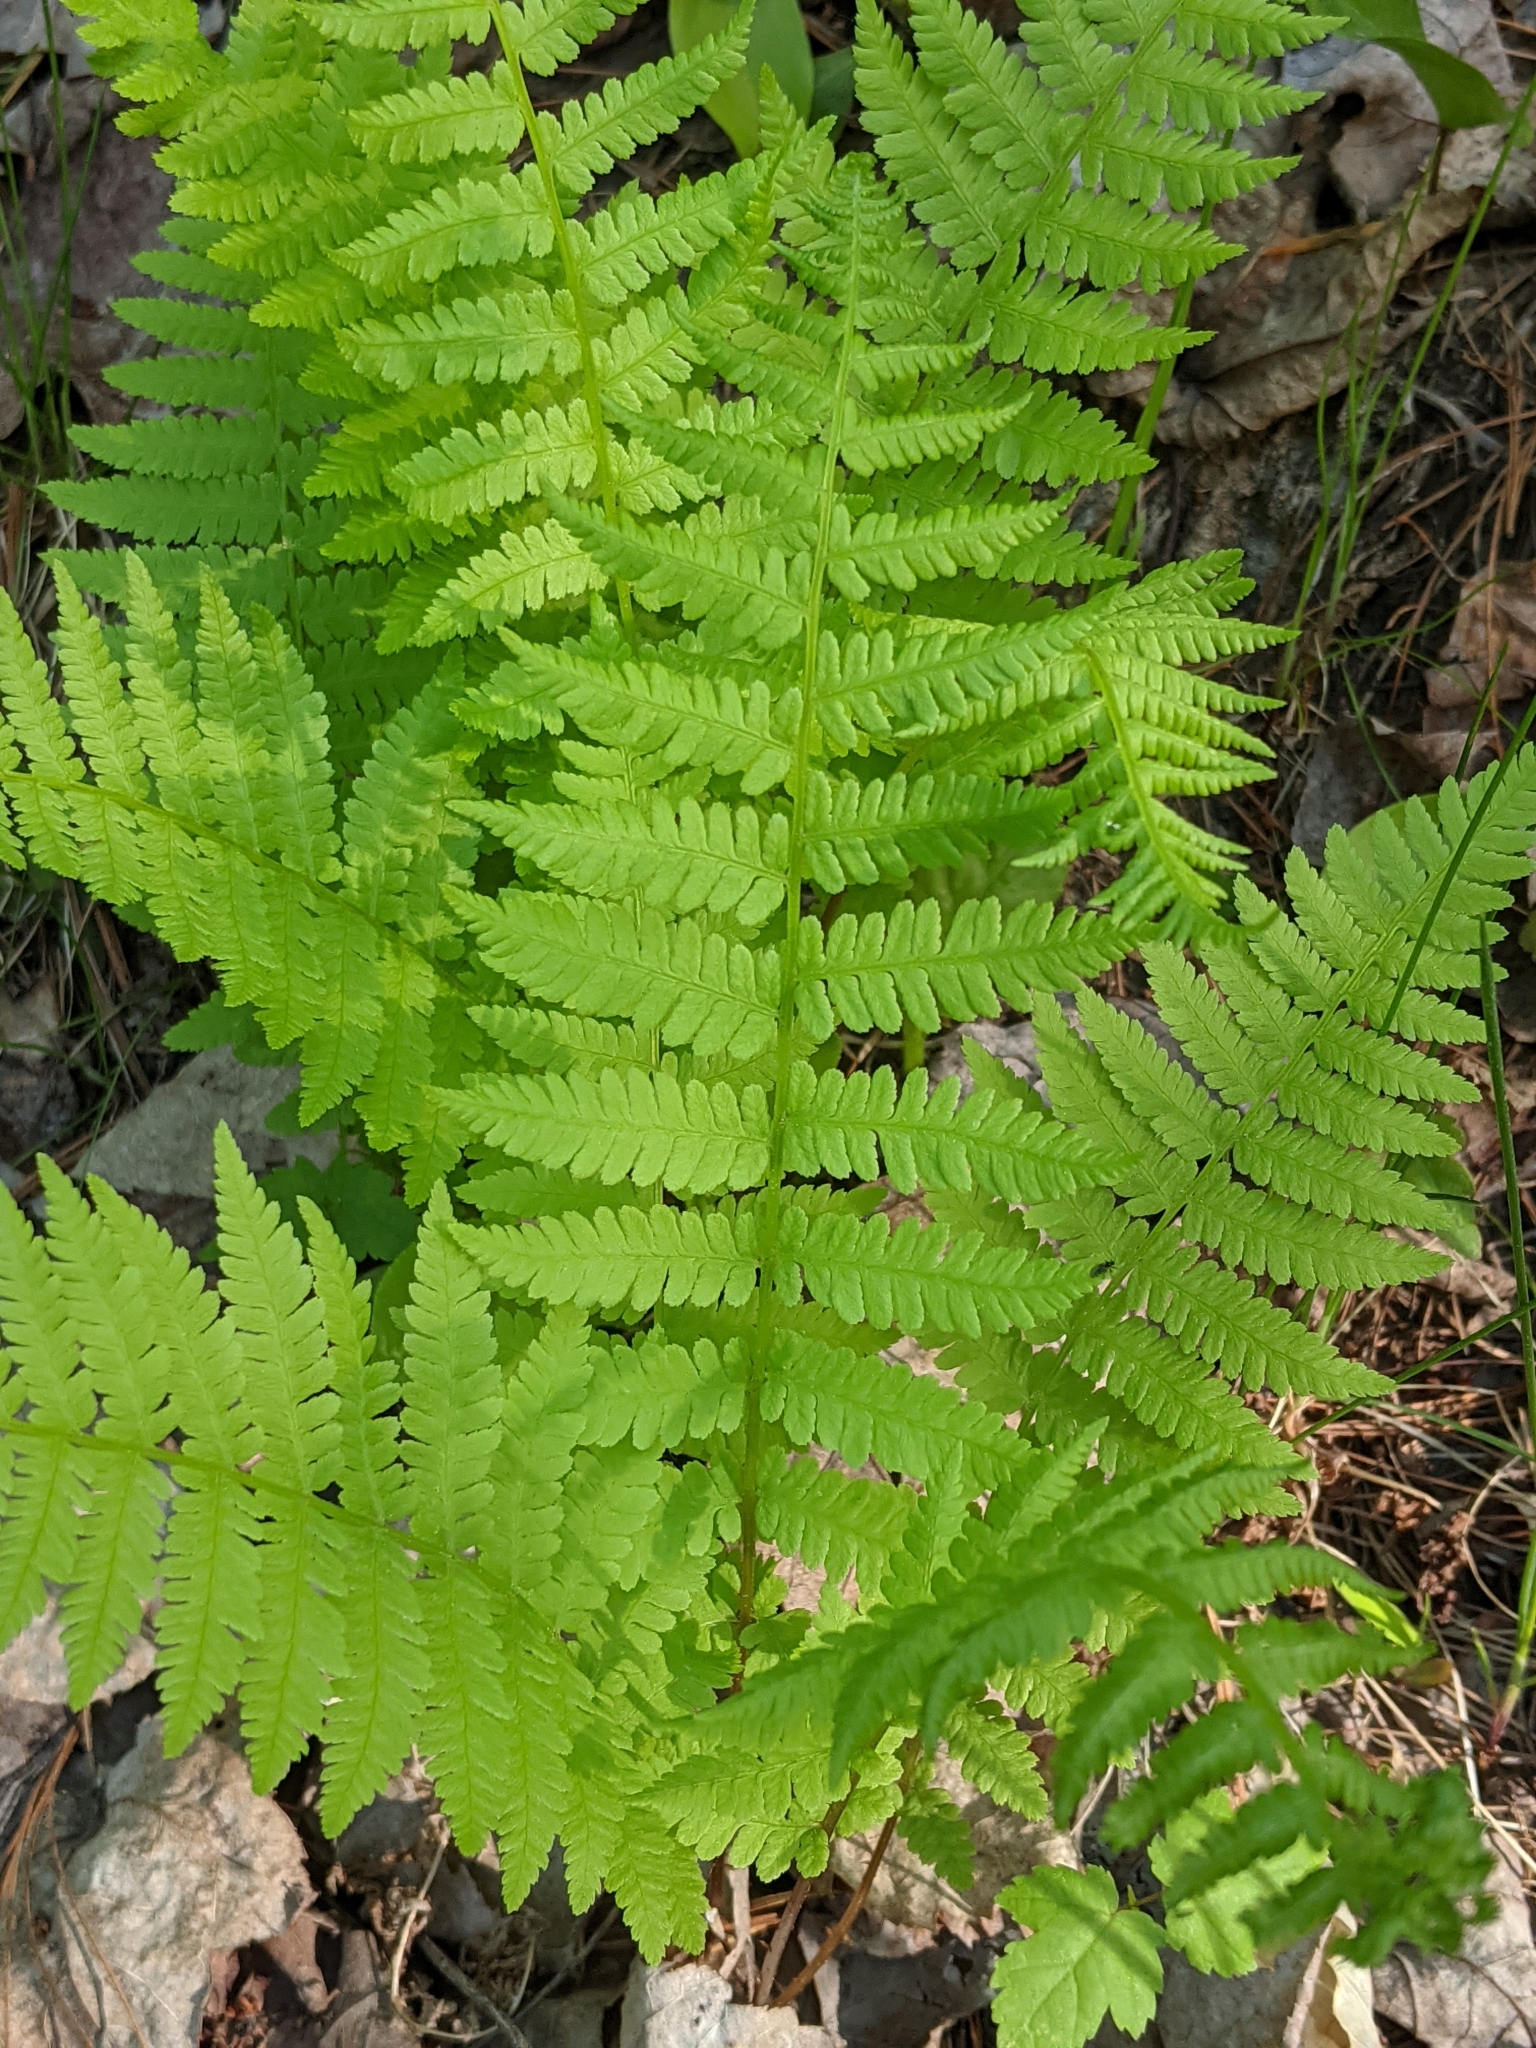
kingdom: Plantae
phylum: Tracheophyta
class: Polypodiopsida
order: Polypodiales
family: Athyriaceae
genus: Athyrium
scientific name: Athyrium angustum
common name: Northern lady fern
